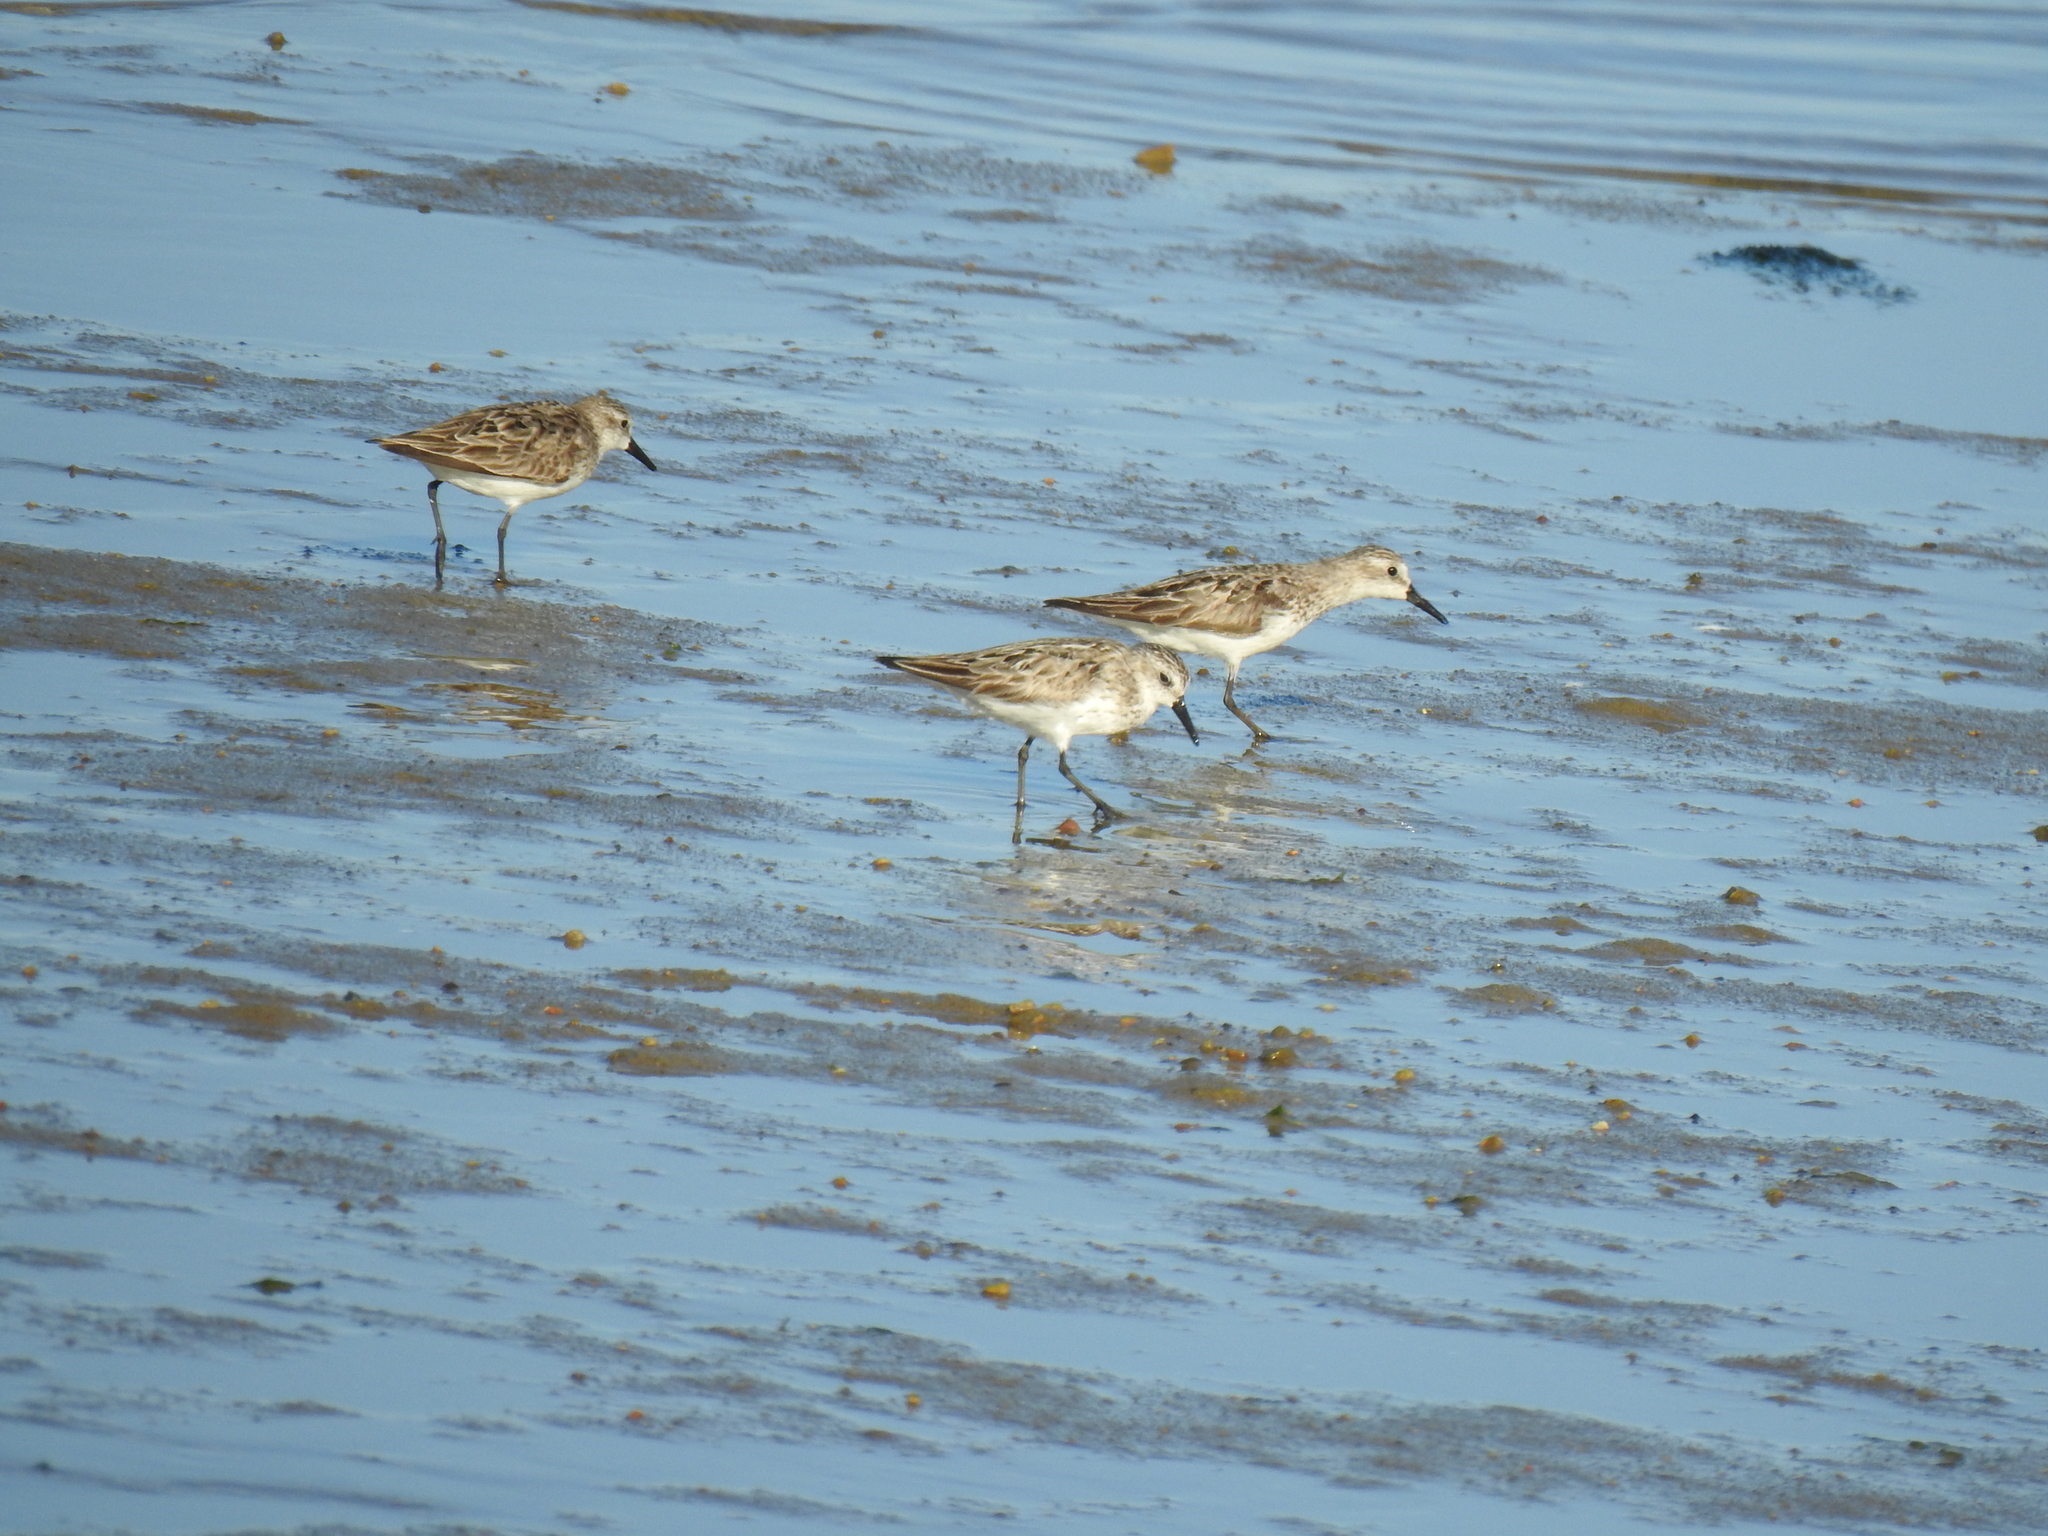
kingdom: Animalia
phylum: Chordata
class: Aves
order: Charadriiformes
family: Scolopacidae
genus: Calidris
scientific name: Calidris pusilla
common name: Semipalmated sandpiper
